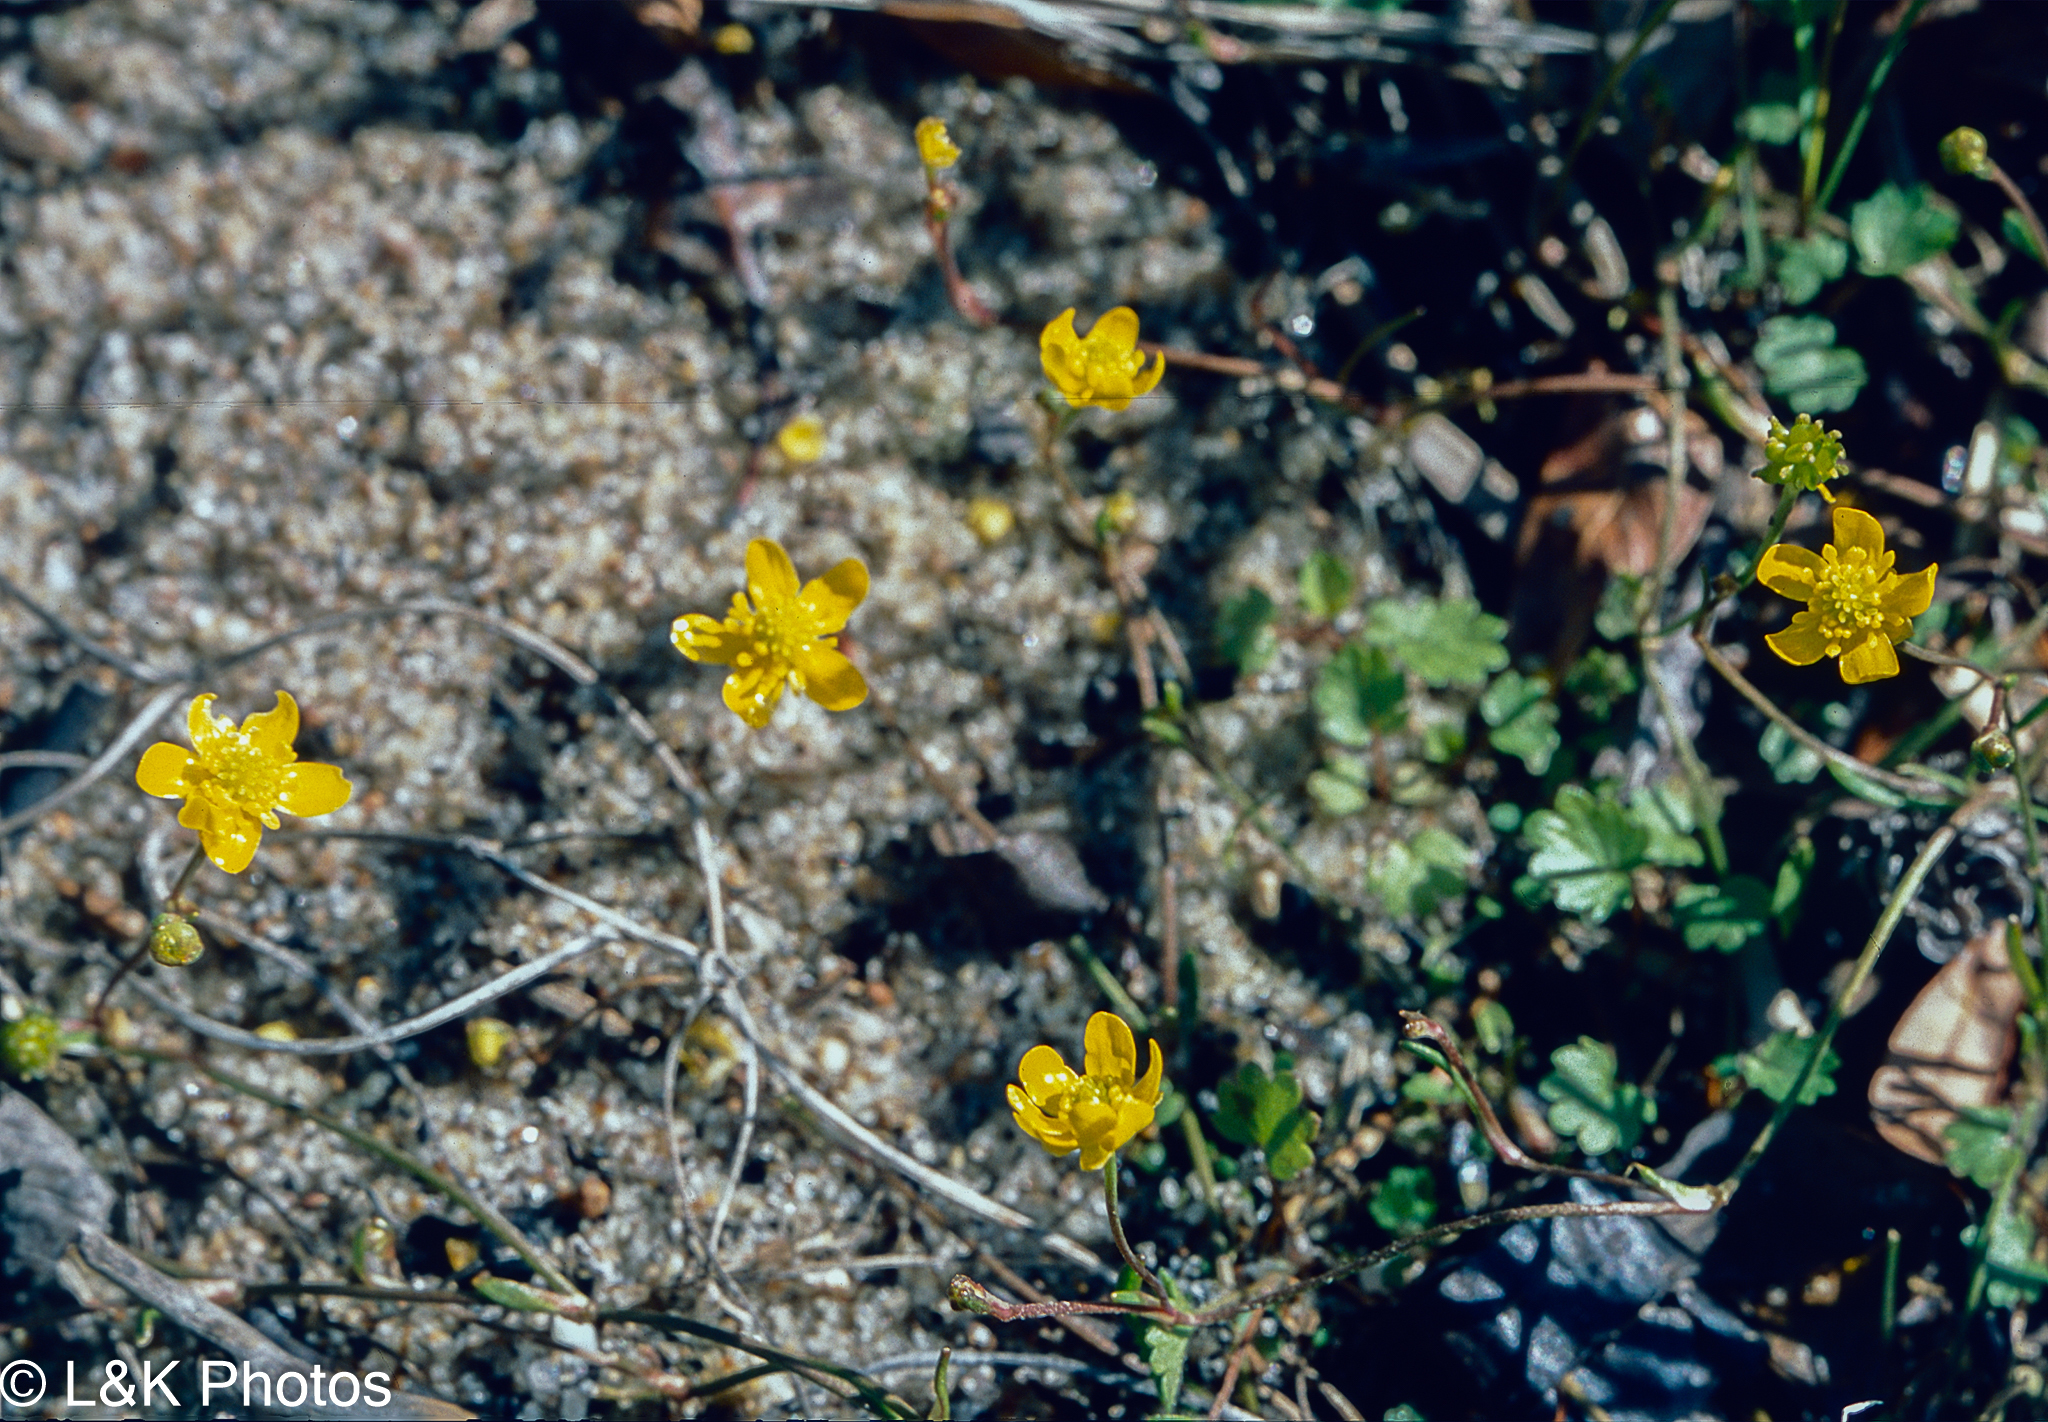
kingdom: Plantae
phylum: Tracheophyta
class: Magnoliopsida
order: Ranunculales
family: Ranunculaceae
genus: Ranunculus
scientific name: Ranunculus gmelinii
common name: Gmelin's buttercup
